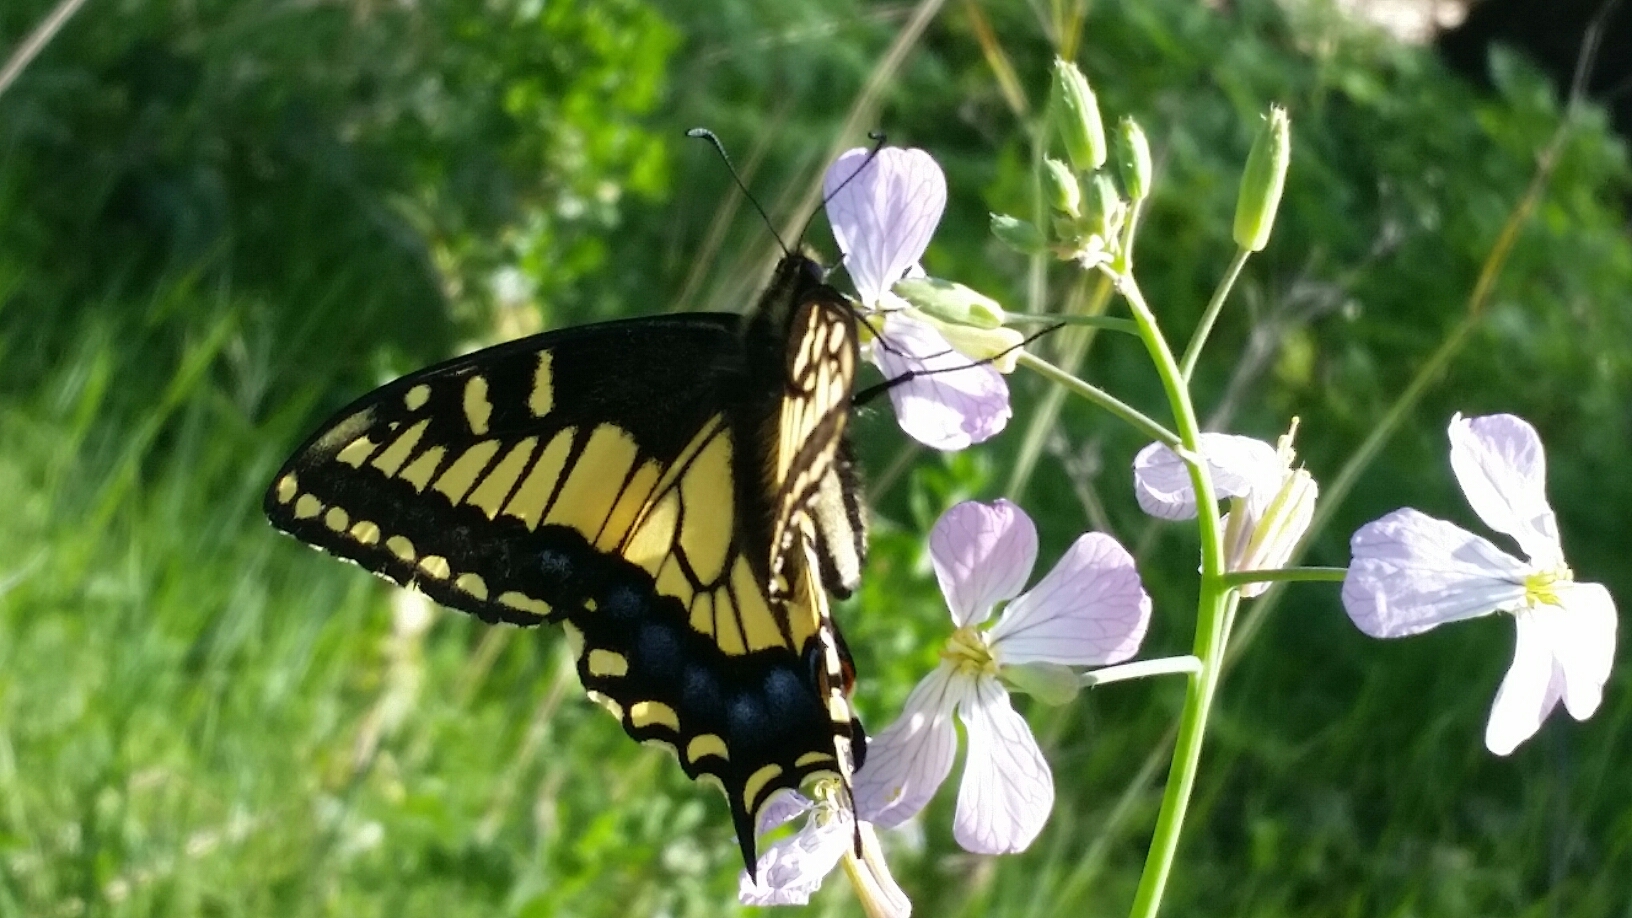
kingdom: Animalia
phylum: Arthropoda
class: Insecta
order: Lepidoptera
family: Papilionidae
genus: Papilio
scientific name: Papilio zelicaon
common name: Anise swallowtail
